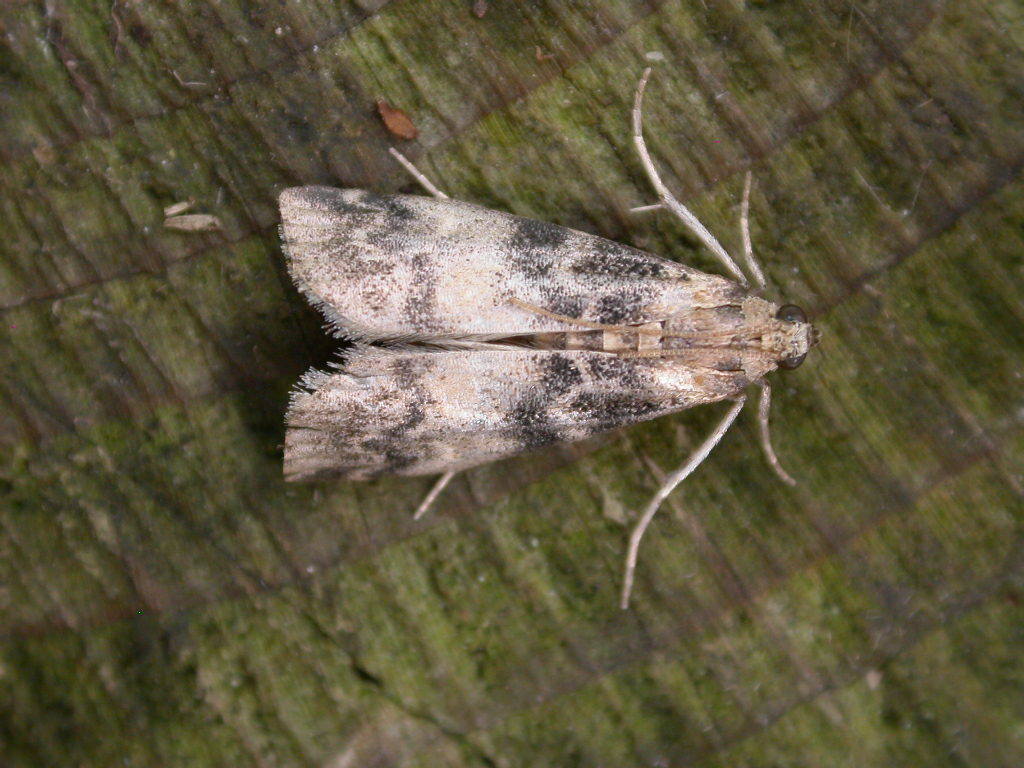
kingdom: Animalia
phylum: Arthropoda
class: Insecta
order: Lepidoptera
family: Pyralidae
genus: Euzophera
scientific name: Euzophera pinguis
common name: Ash-bark knot-horn
